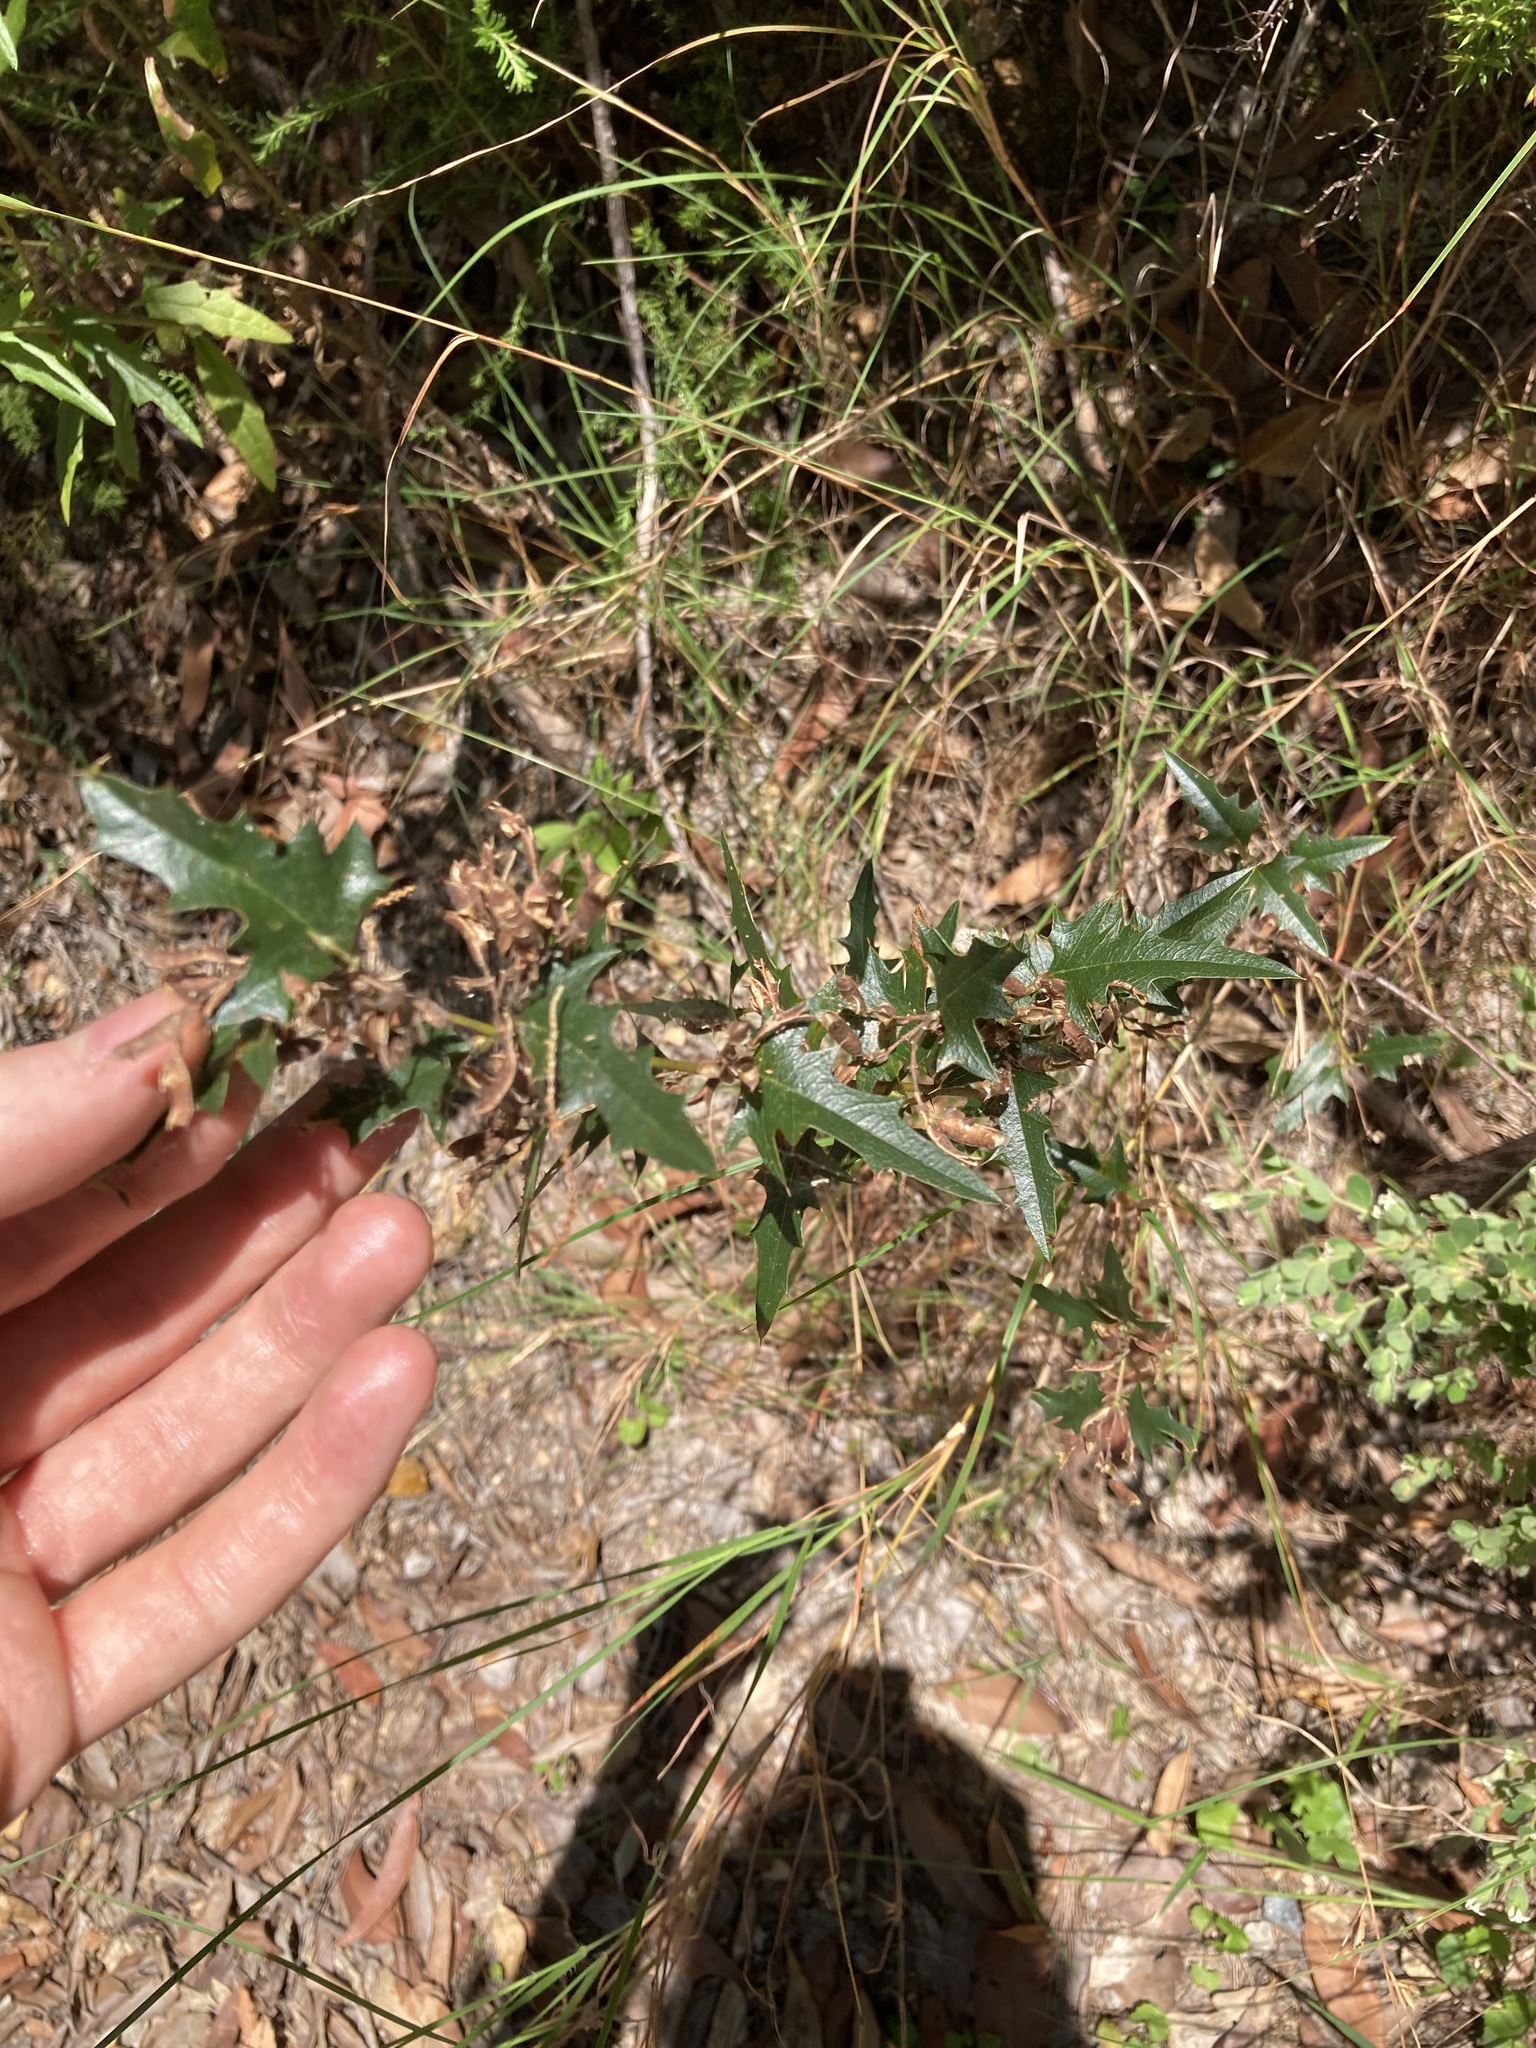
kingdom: Plantae
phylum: Tracheophyta
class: Magnoliopsida
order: Fabales
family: Fabaceae
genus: Podolobium
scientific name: Podolobium ilicifolium
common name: Native holly
